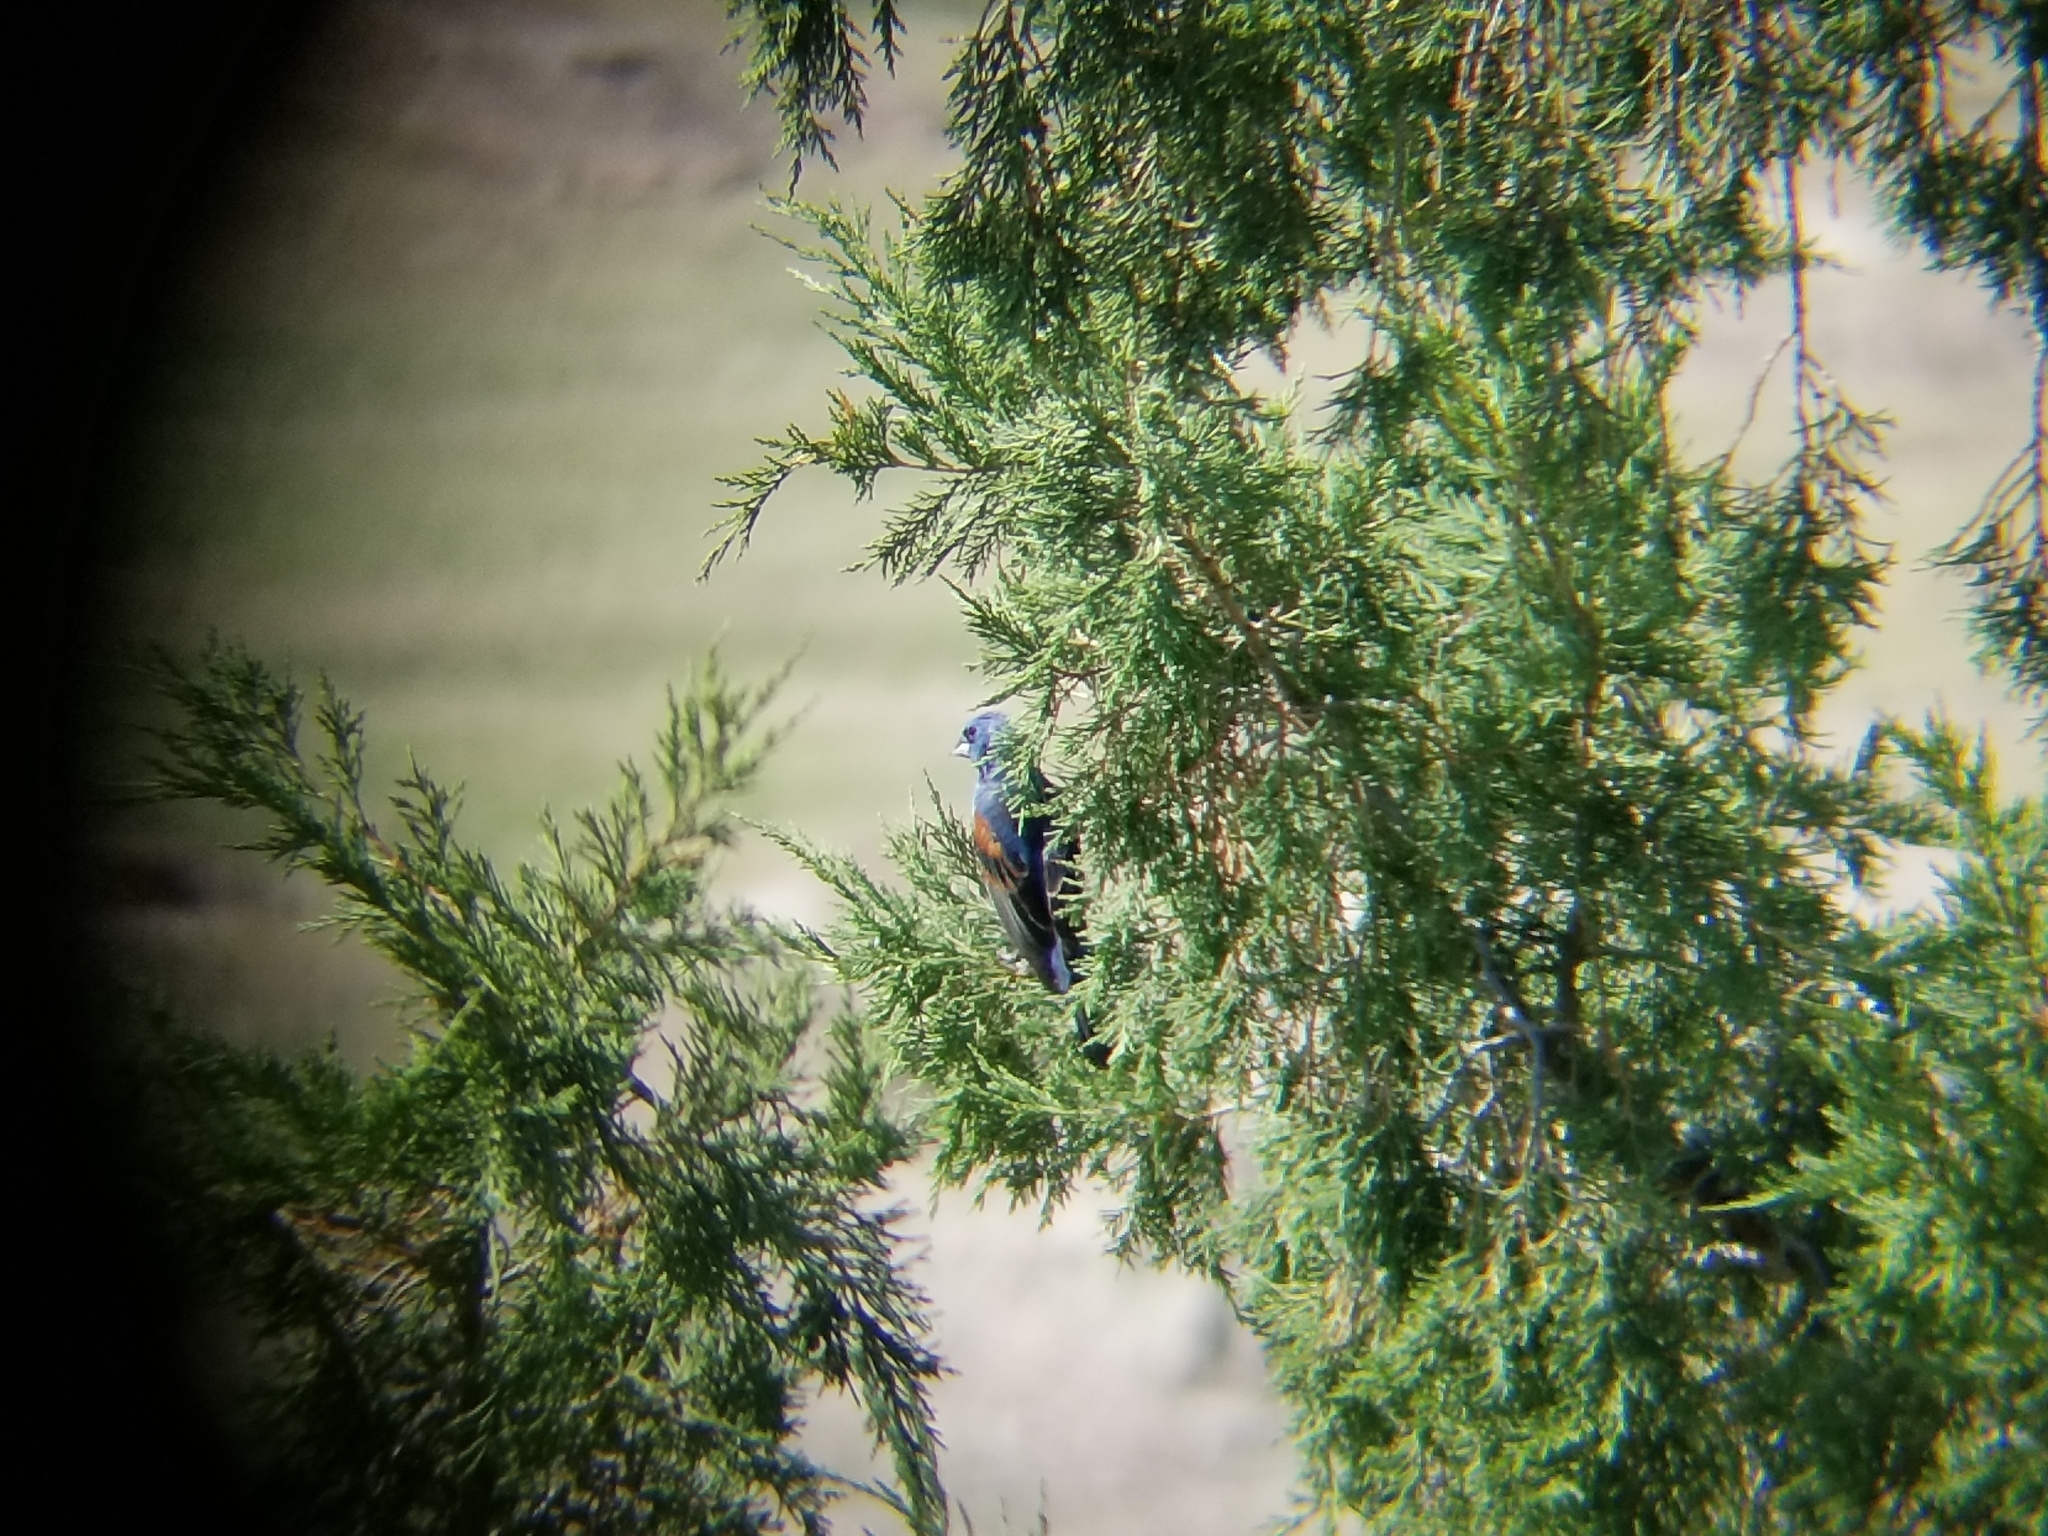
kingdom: Animalia
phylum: Chordata
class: Aves
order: Passeriformes
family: Cardinalidae
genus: Passerina
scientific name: Passerina caerulea
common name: Blue grosbeak
